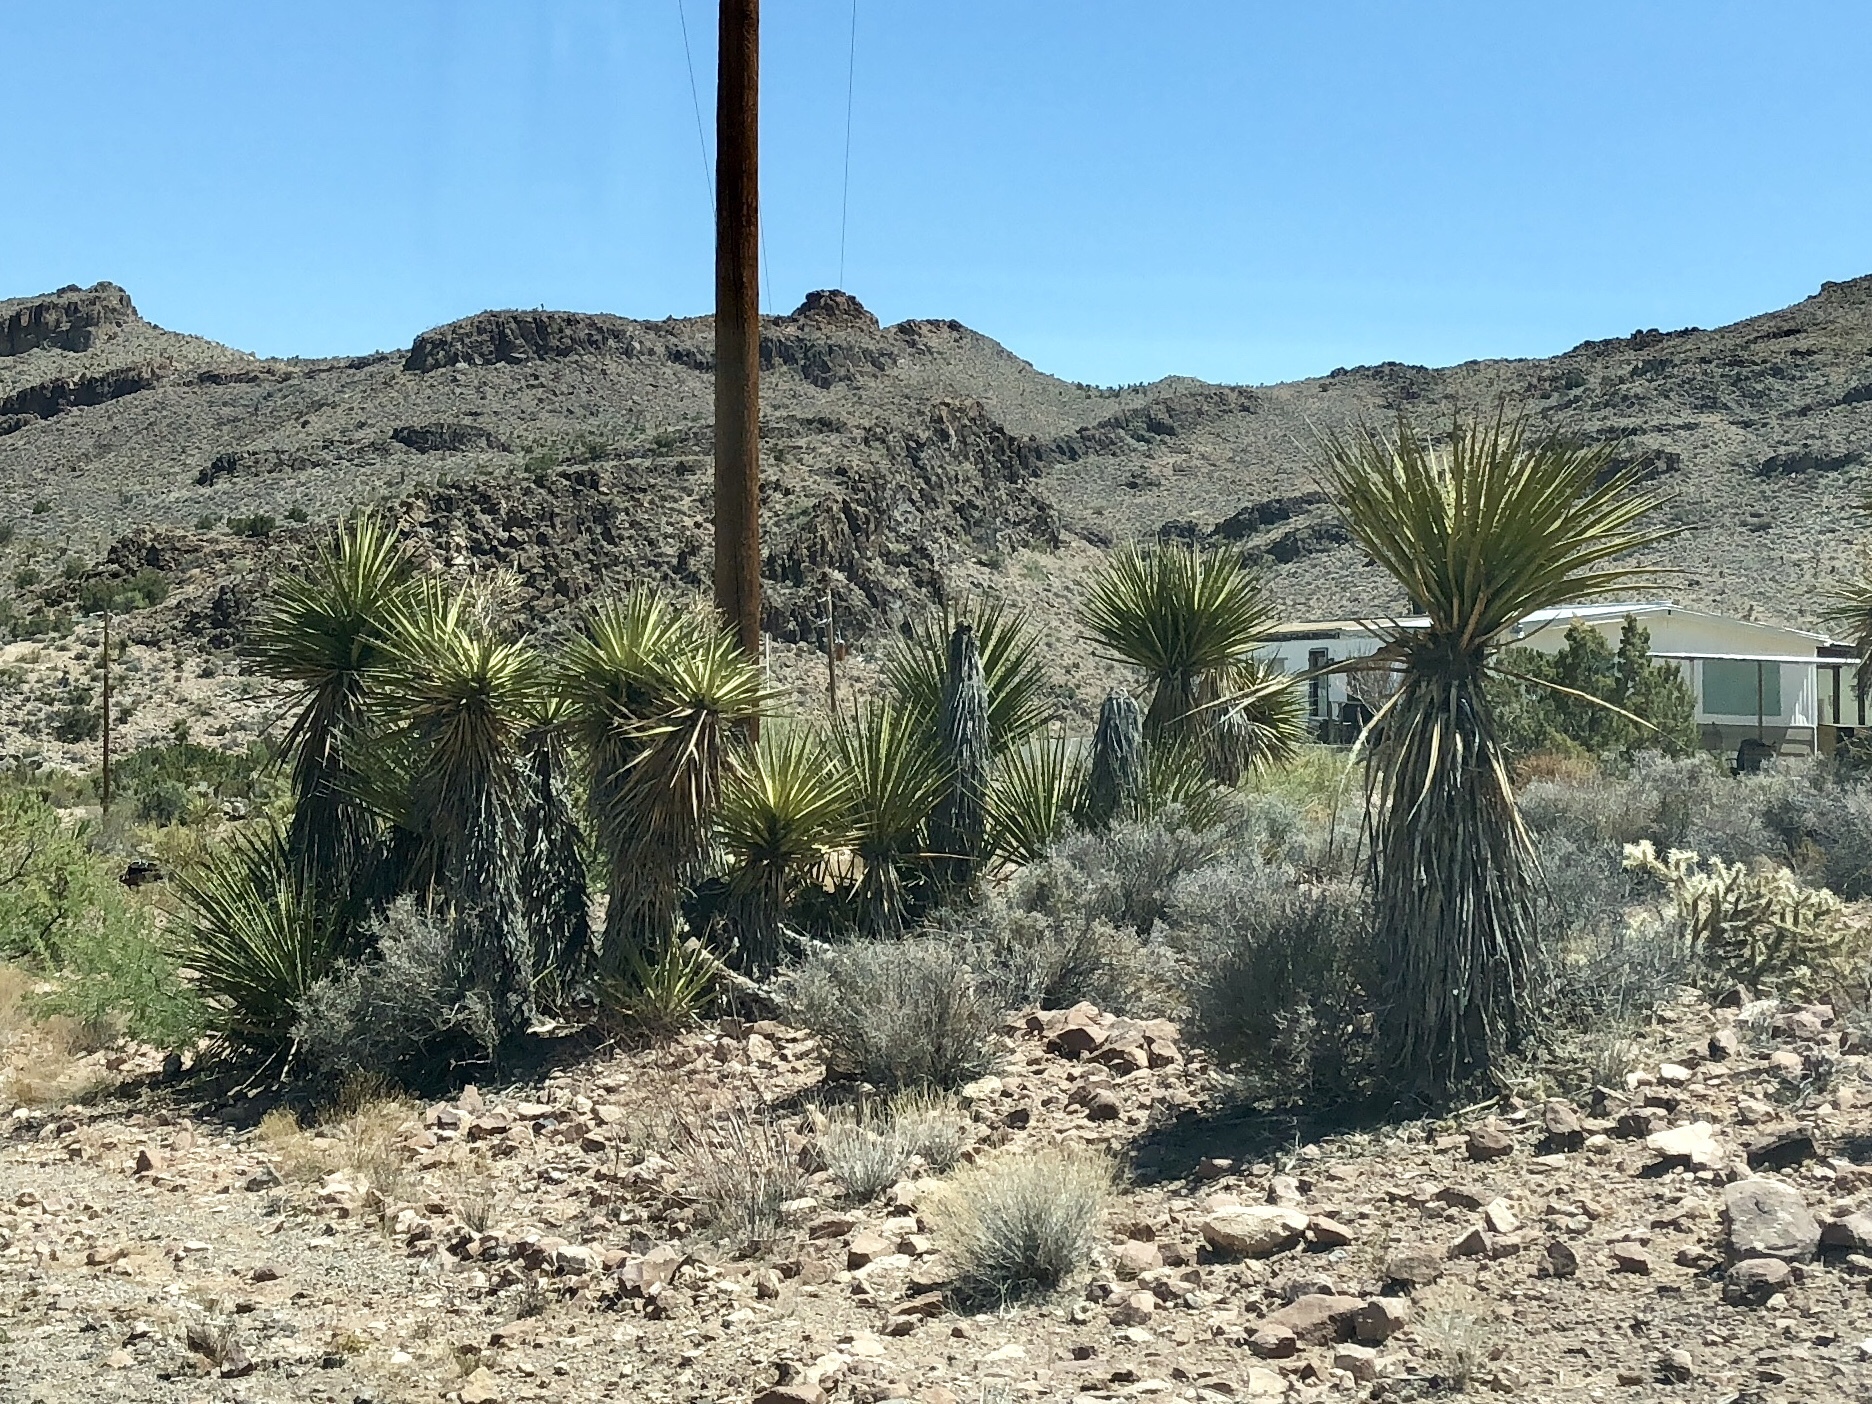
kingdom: Plantae
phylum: Tracheophyta
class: Liliopsida
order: Asparagales
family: Asparagaceae
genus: Yucca
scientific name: Yucca schidigera
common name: Mojave yucca
